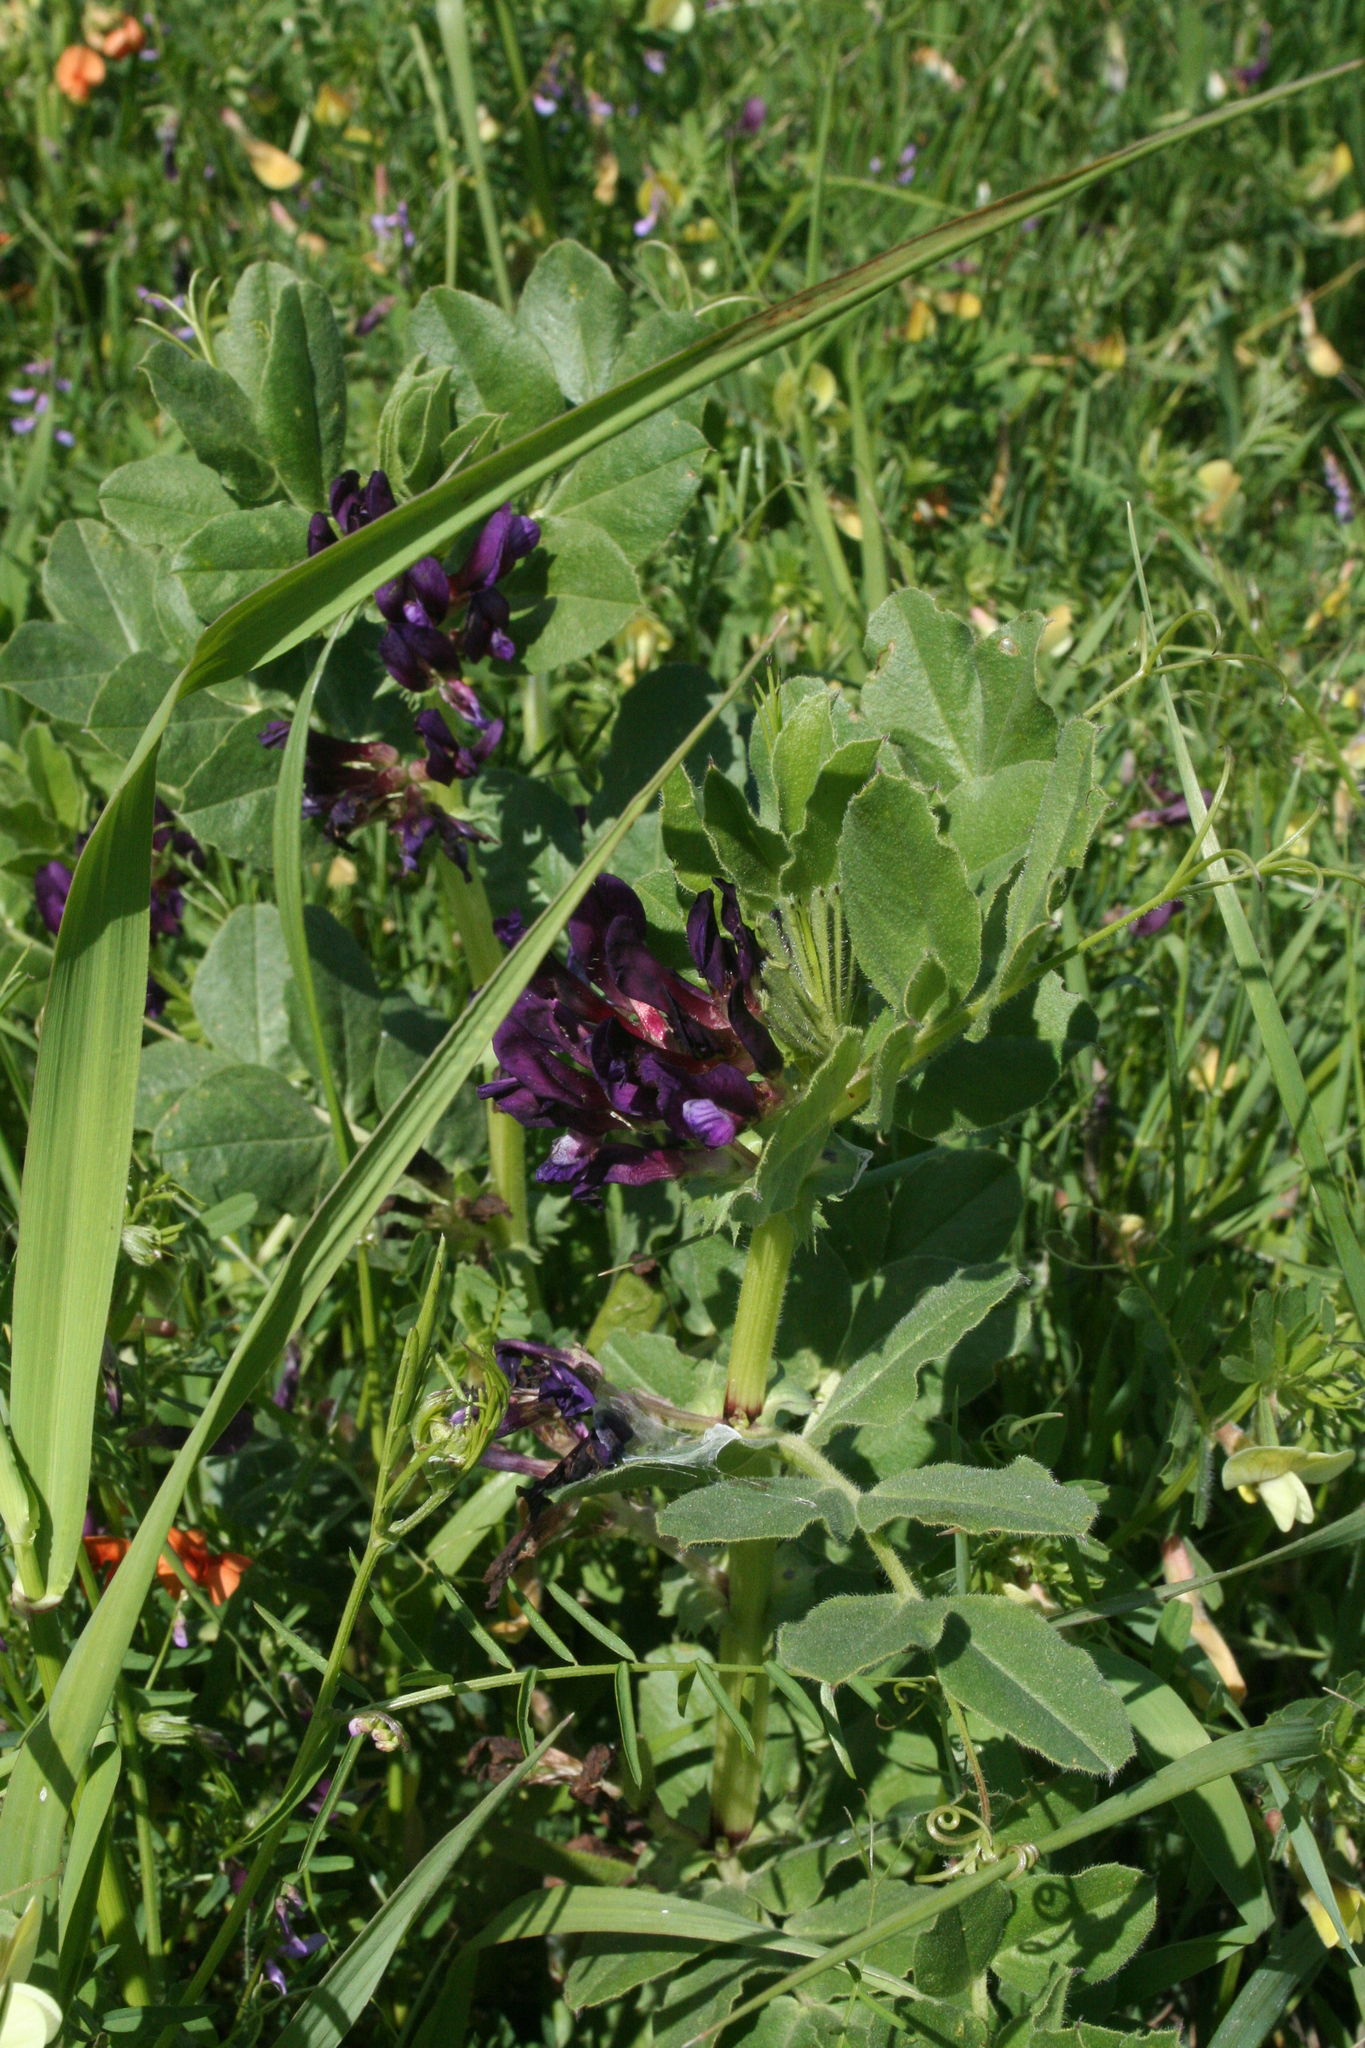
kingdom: Plantae
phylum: Tracheophyta
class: Magnoliopsida
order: Fabales
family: Fabaceae
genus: Vicia
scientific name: Vicia narbonensis
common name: Narbonne vetch
